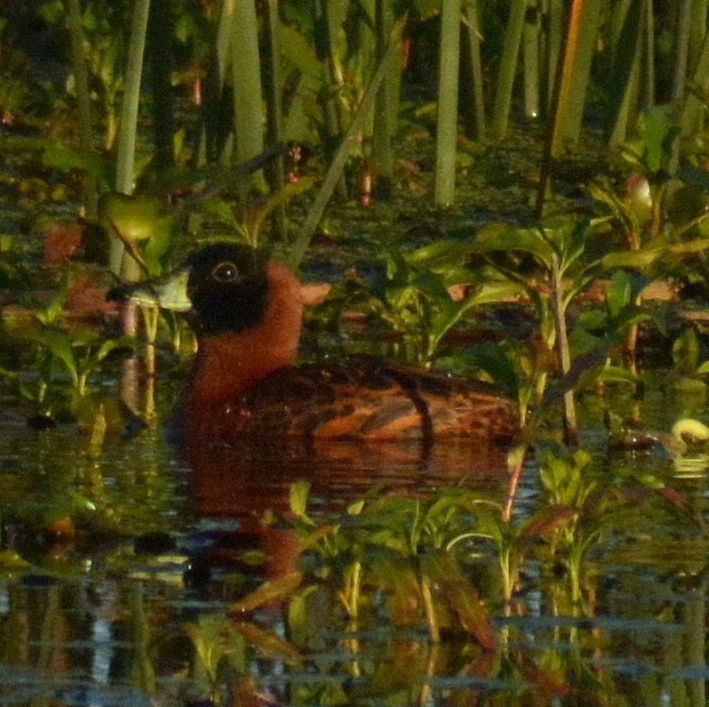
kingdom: Animalia
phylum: Chordata
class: Aves
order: Anseriformes
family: Anatidae
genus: Nomonyx
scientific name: Nomonyx dominicus
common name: Masked duck
